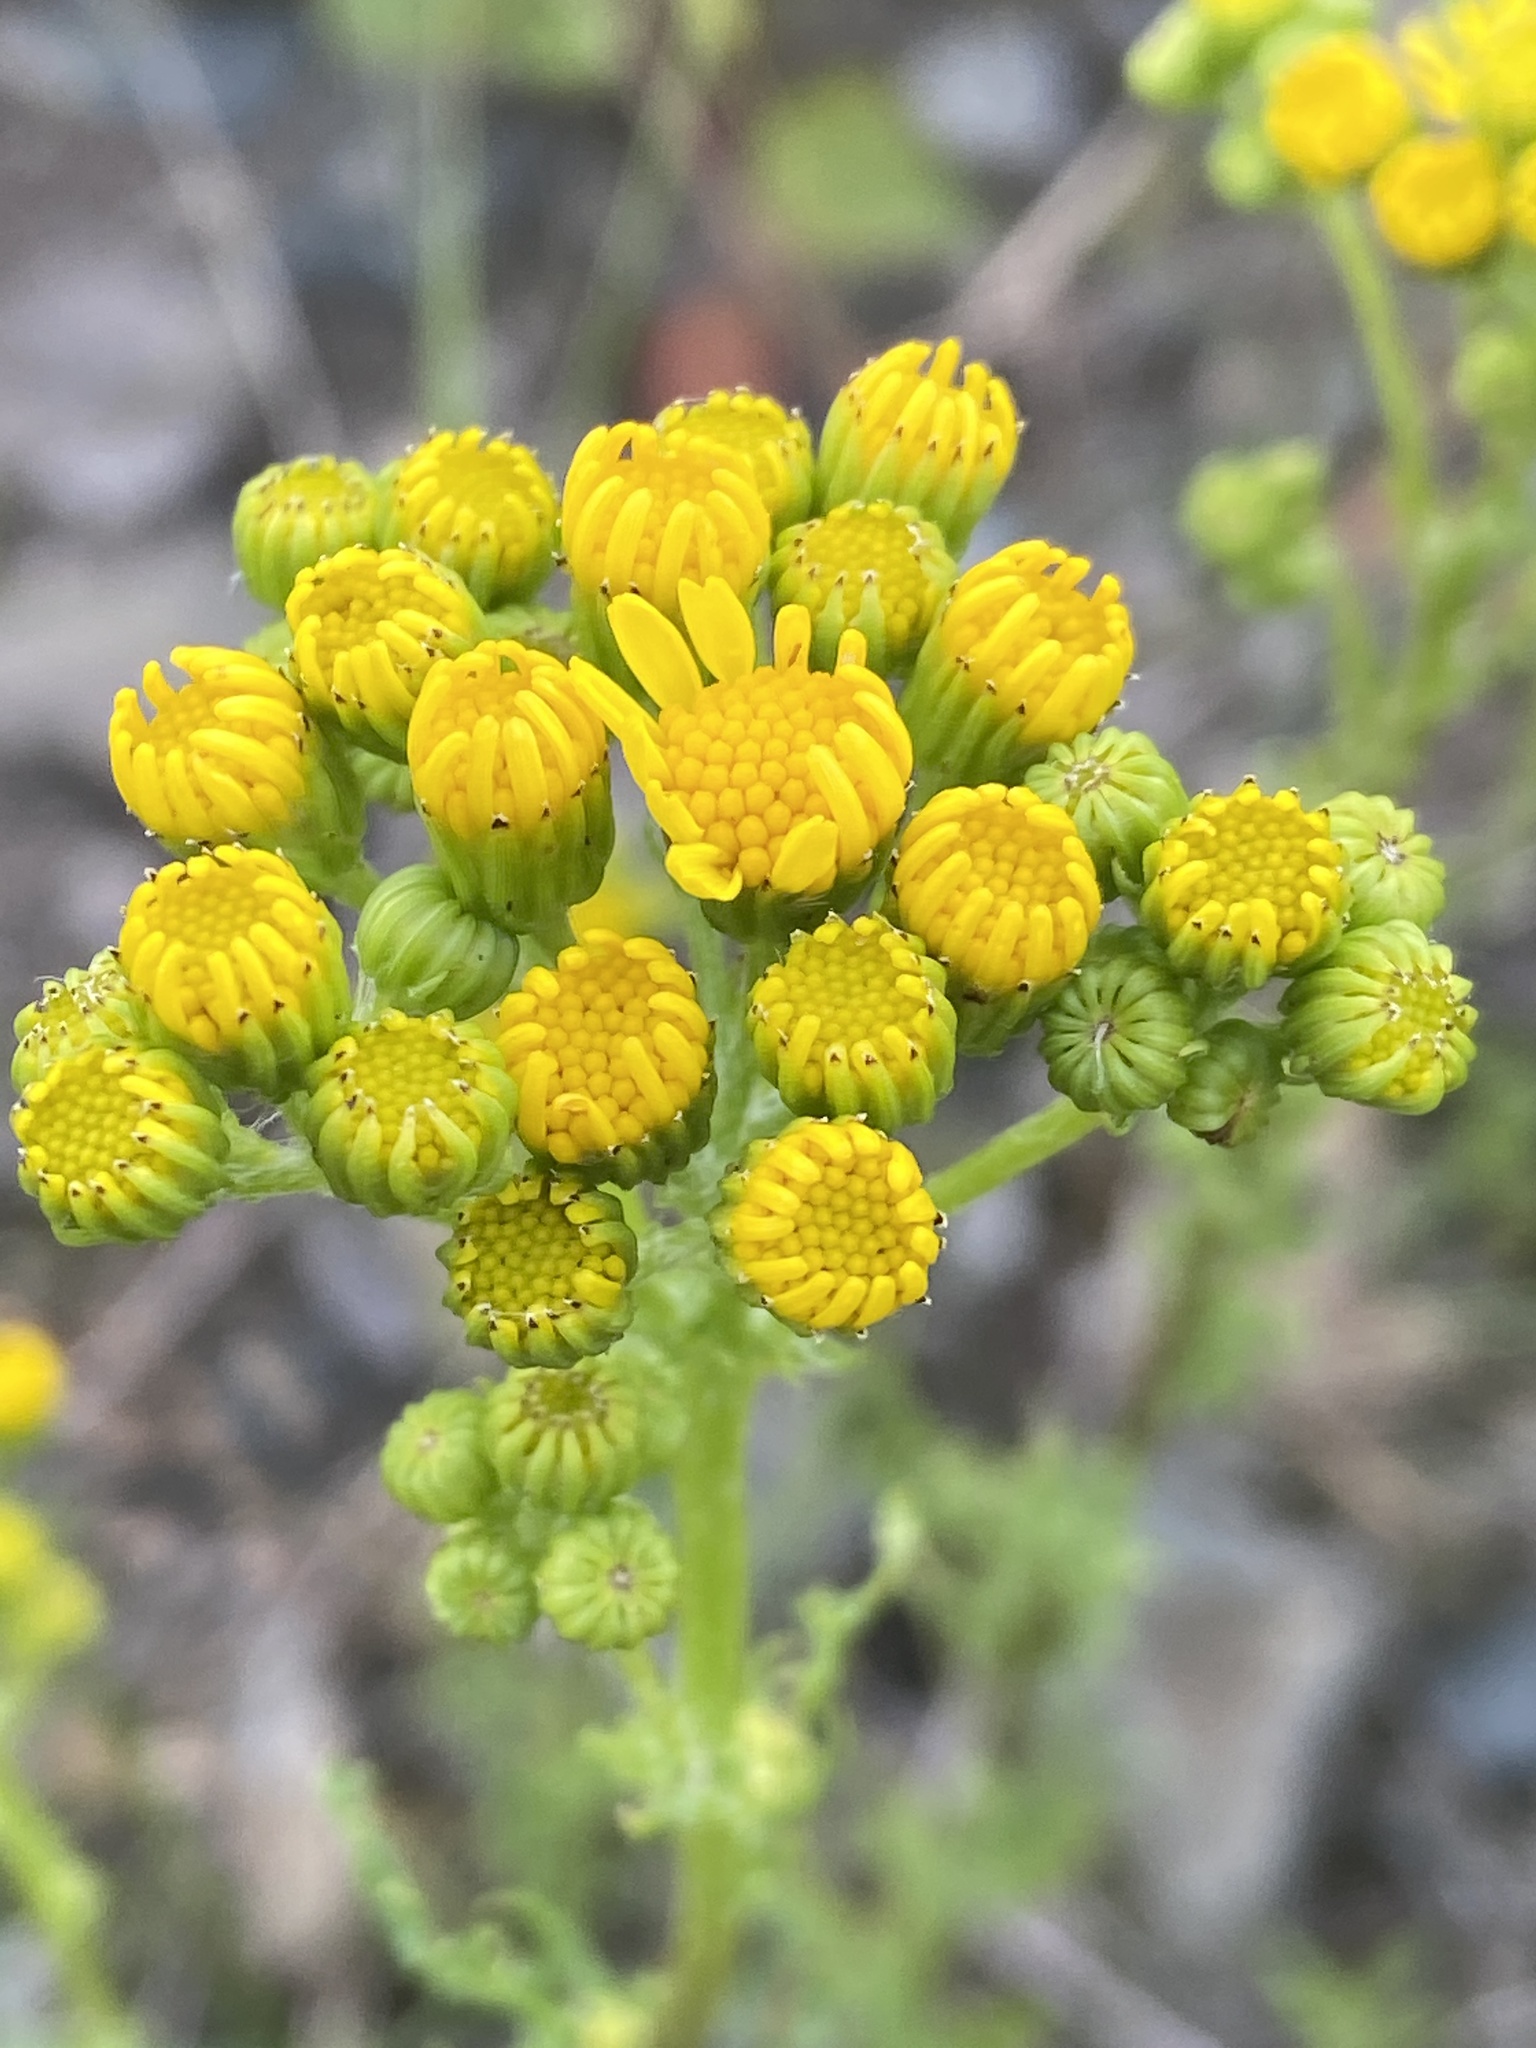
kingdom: Plantae
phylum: Tracheophyta
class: Magnoliopsida
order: Asterales
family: Asteraceae
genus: Jacobaea
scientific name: Jacobaea vulgaris
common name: Stinking willie
